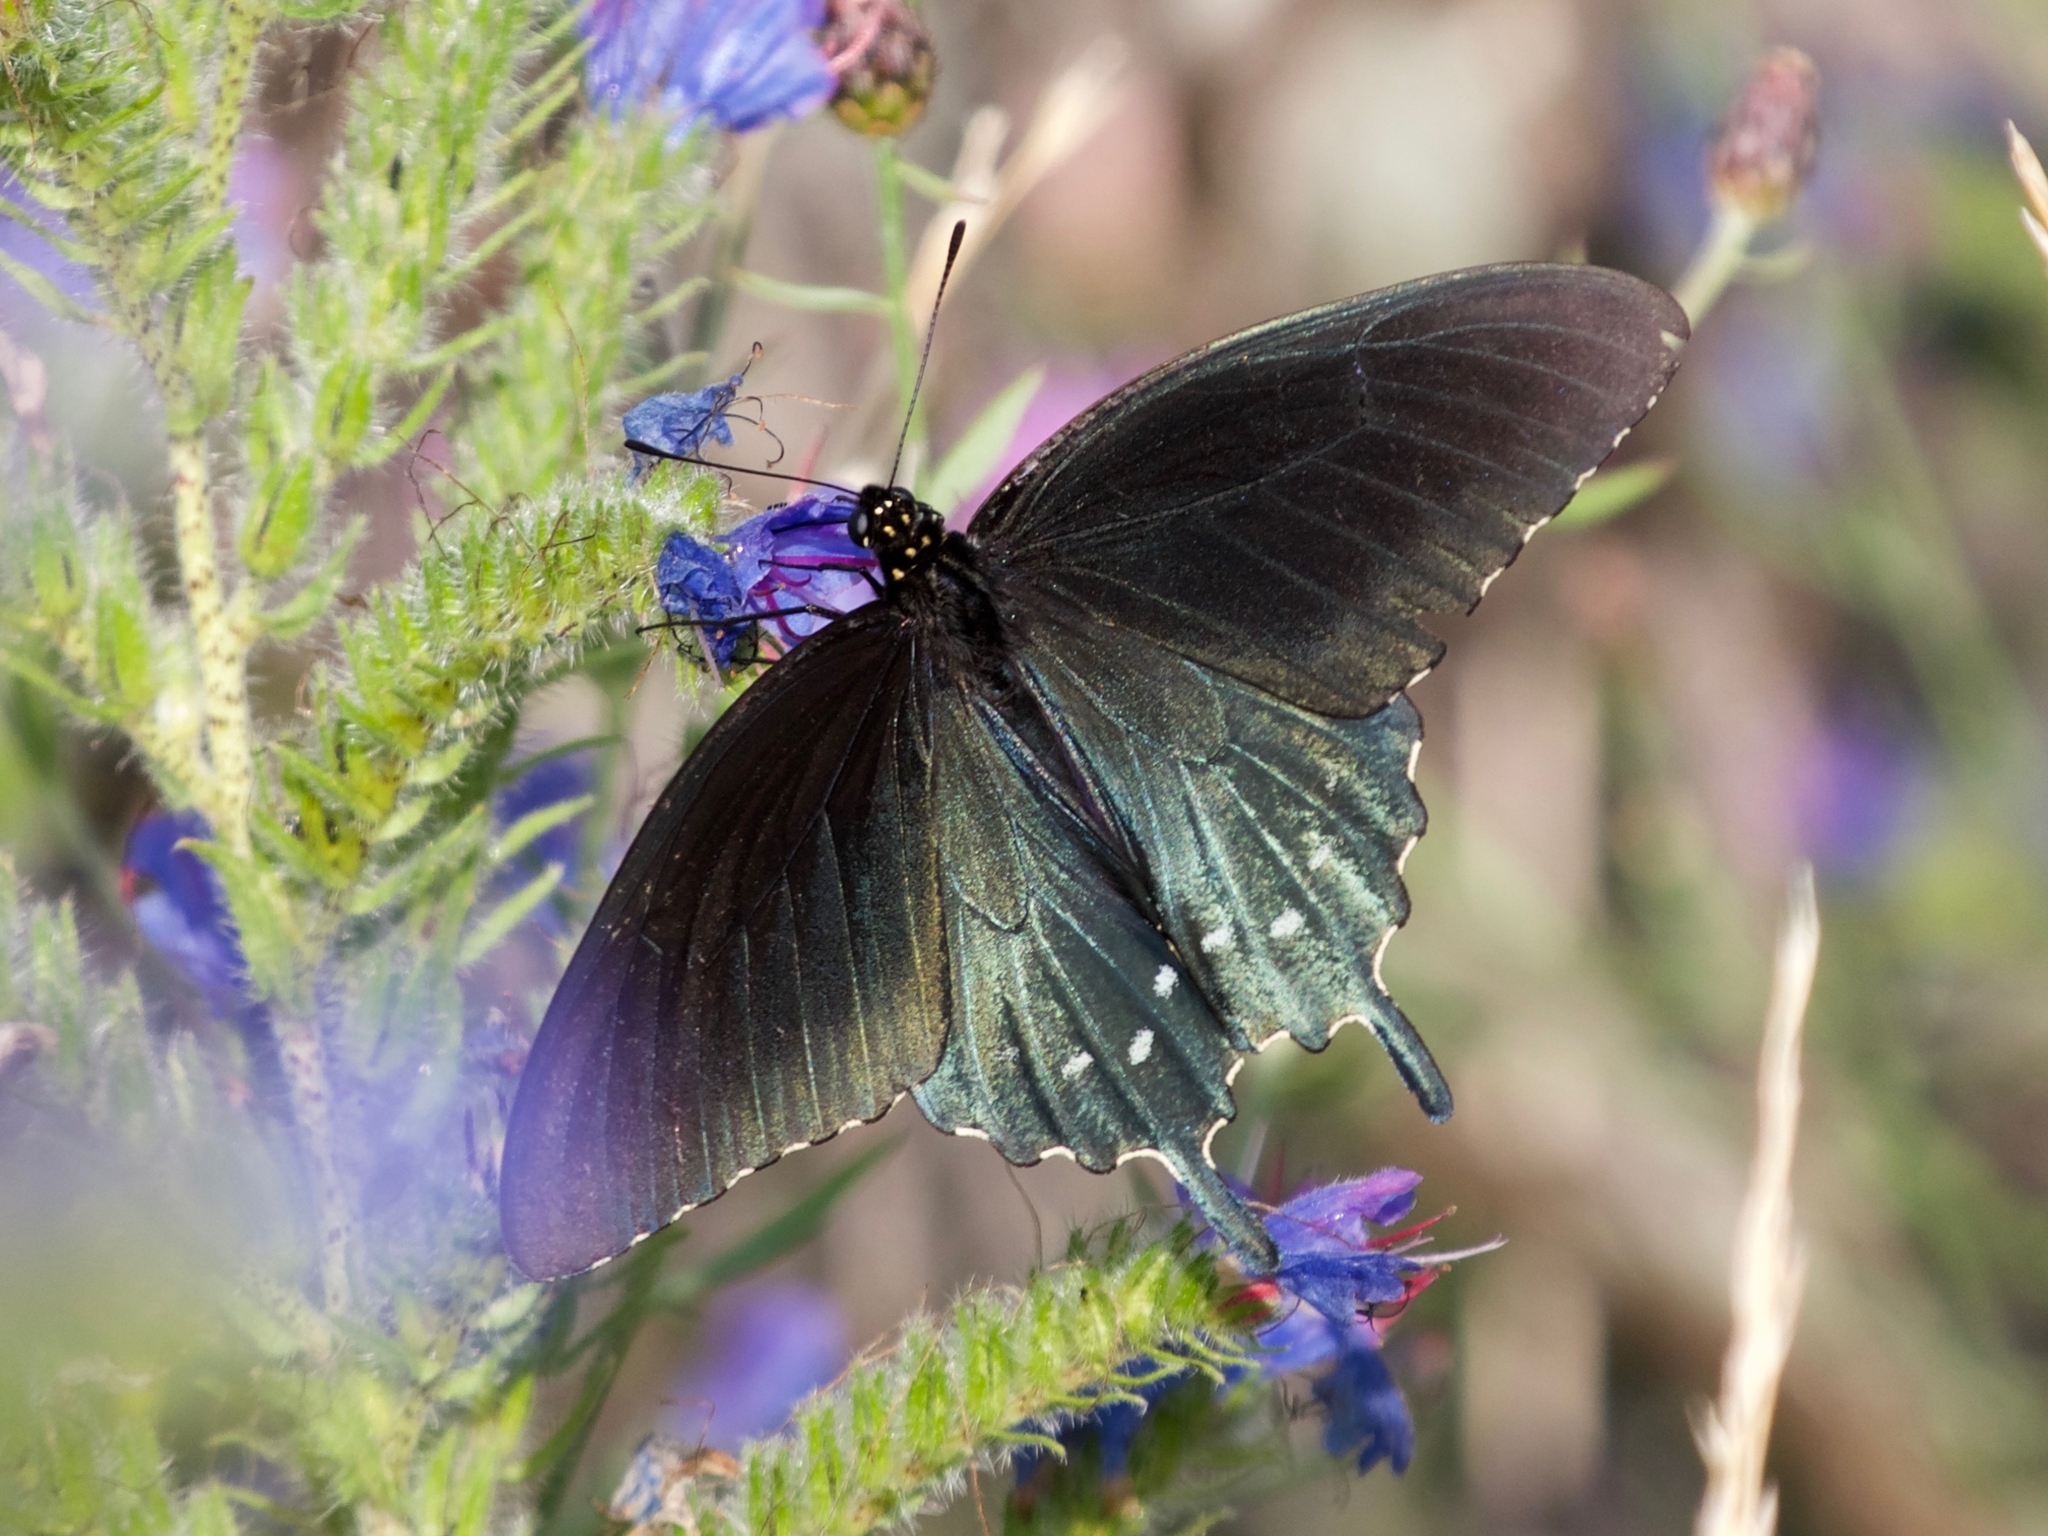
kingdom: Animalia
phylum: Arthropoda
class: Insecta
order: Lepidoptera
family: Papilionidae
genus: Battus
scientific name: Battus philenor
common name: Pipevine swallowtail
